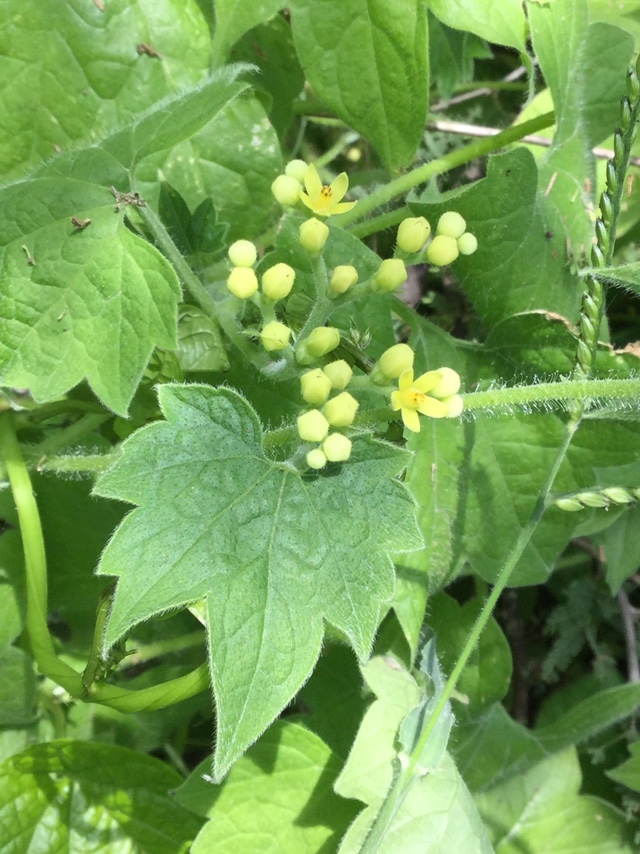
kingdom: Plantae
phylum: Tracheophyta
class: Magnoliopsida
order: Cornales
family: Loasaceae
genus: Gronovia
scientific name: Gronovia scandens
